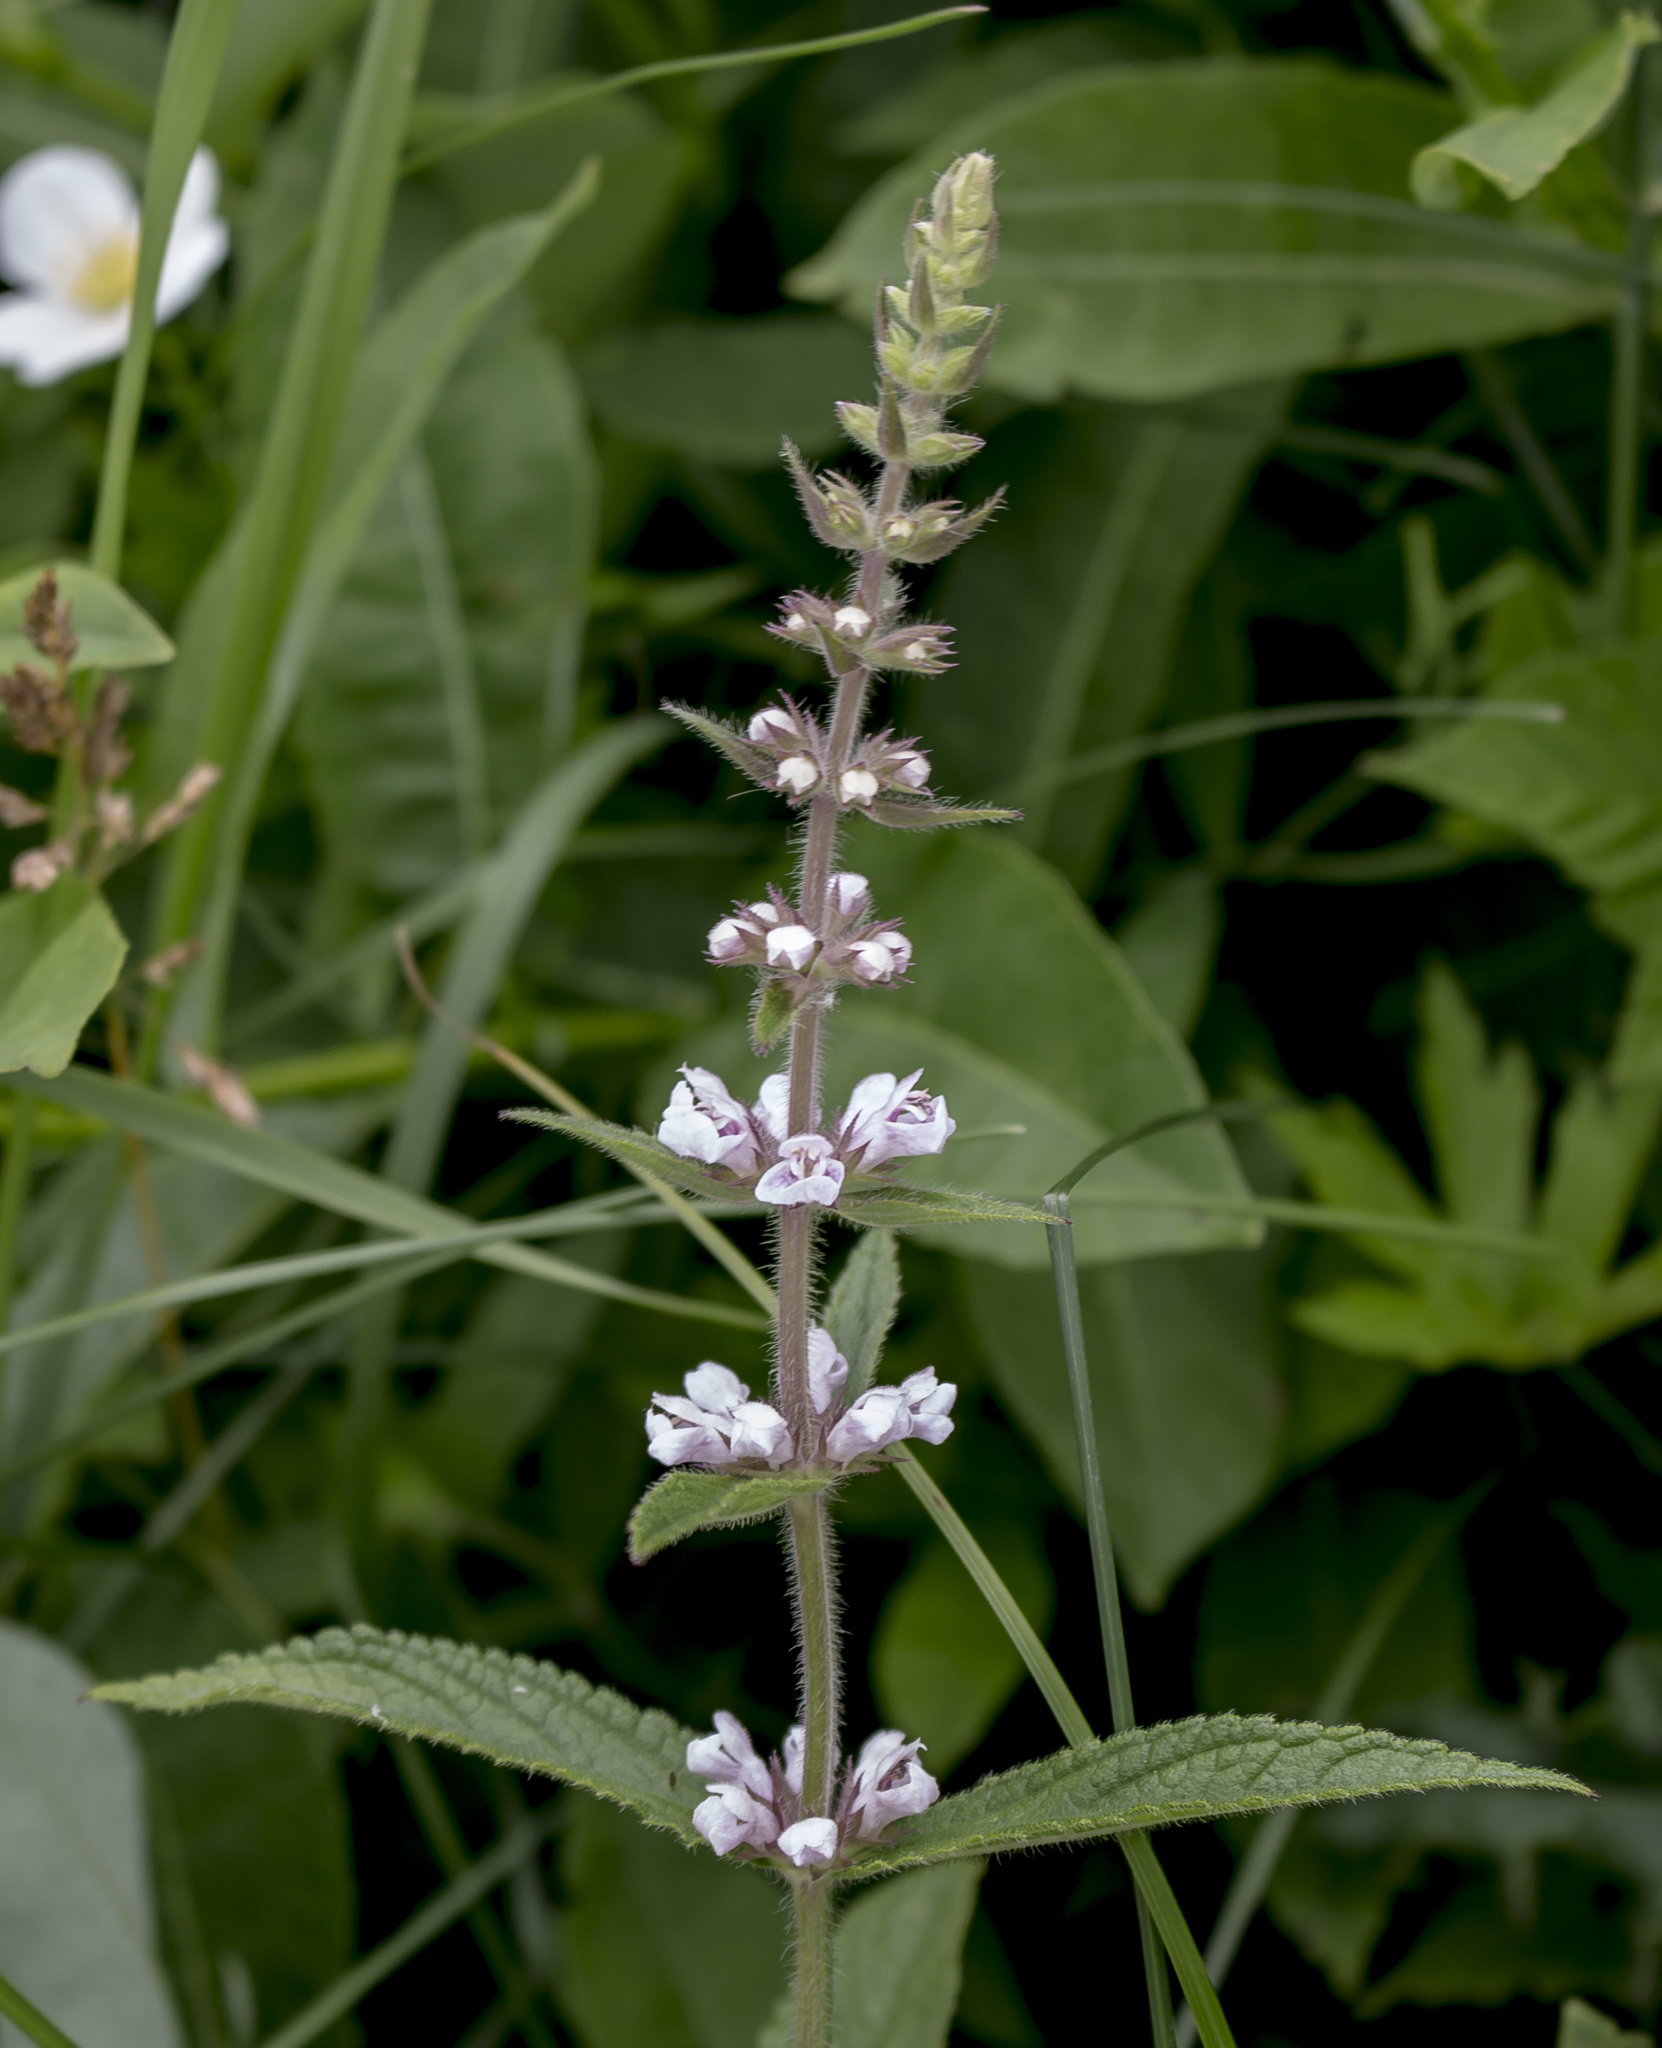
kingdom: Plantae
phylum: Tracheophyta
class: Magnoliopsida
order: Lamiales
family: Lamiaceae
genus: Stachys
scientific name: Stachys palustris
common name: Marsh woundwort
